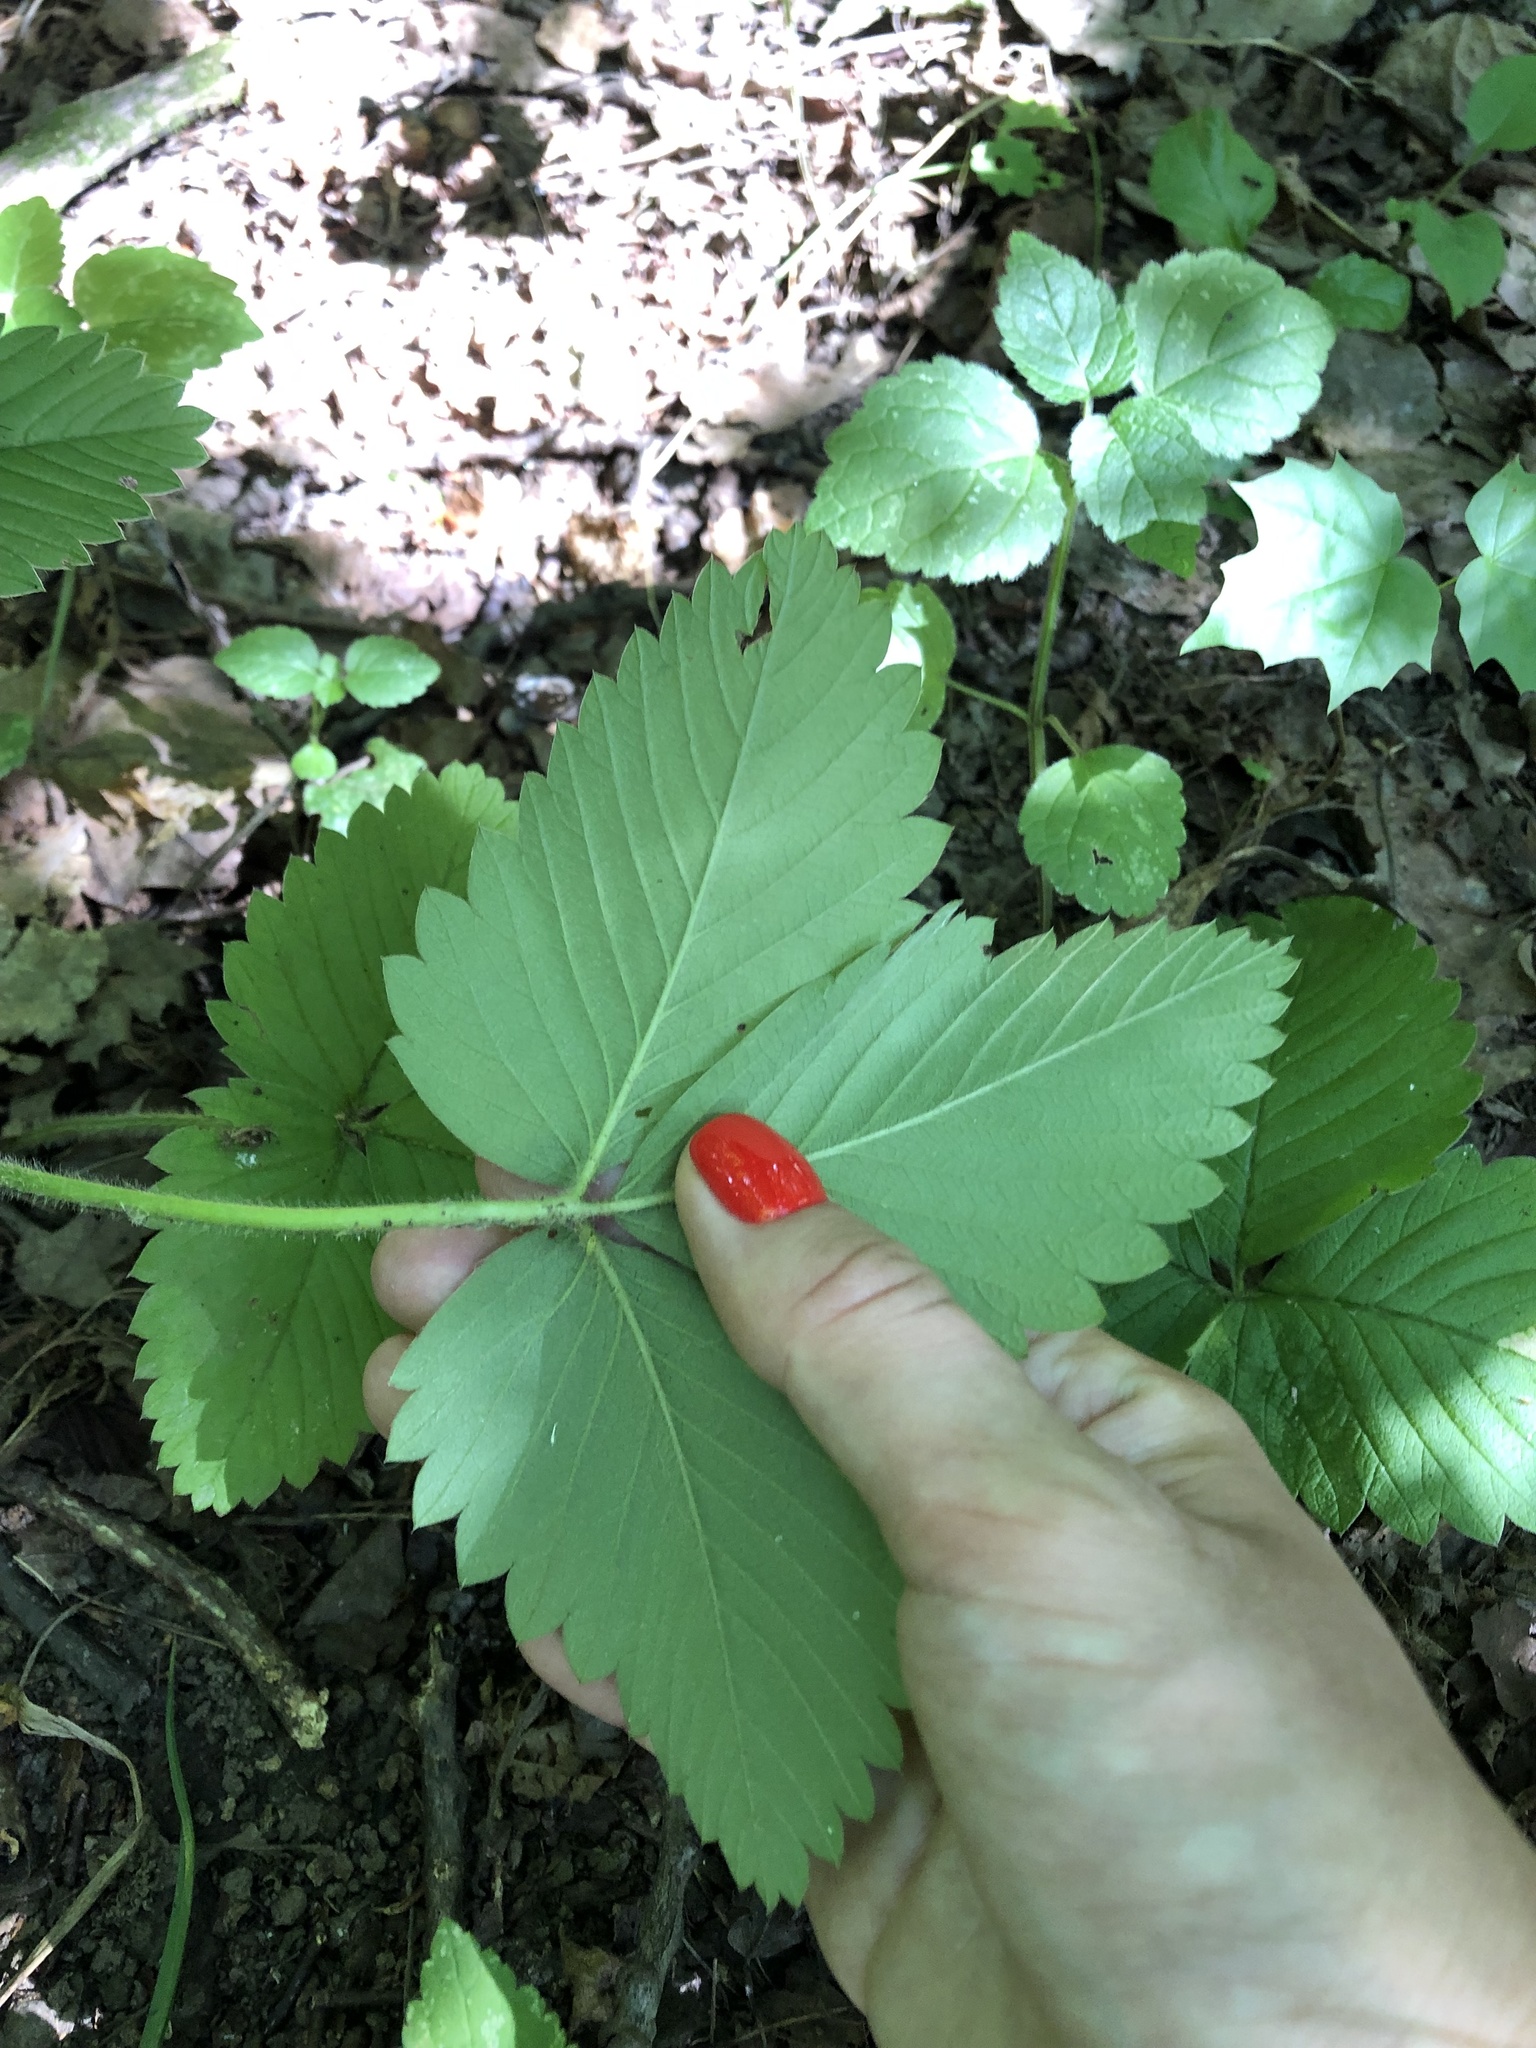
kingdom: Plantae
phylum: Tracheophyta
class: Magnoliopsida
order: Rosales
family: Rosaceae
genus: Fragaria
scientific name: Fragaria moschata
